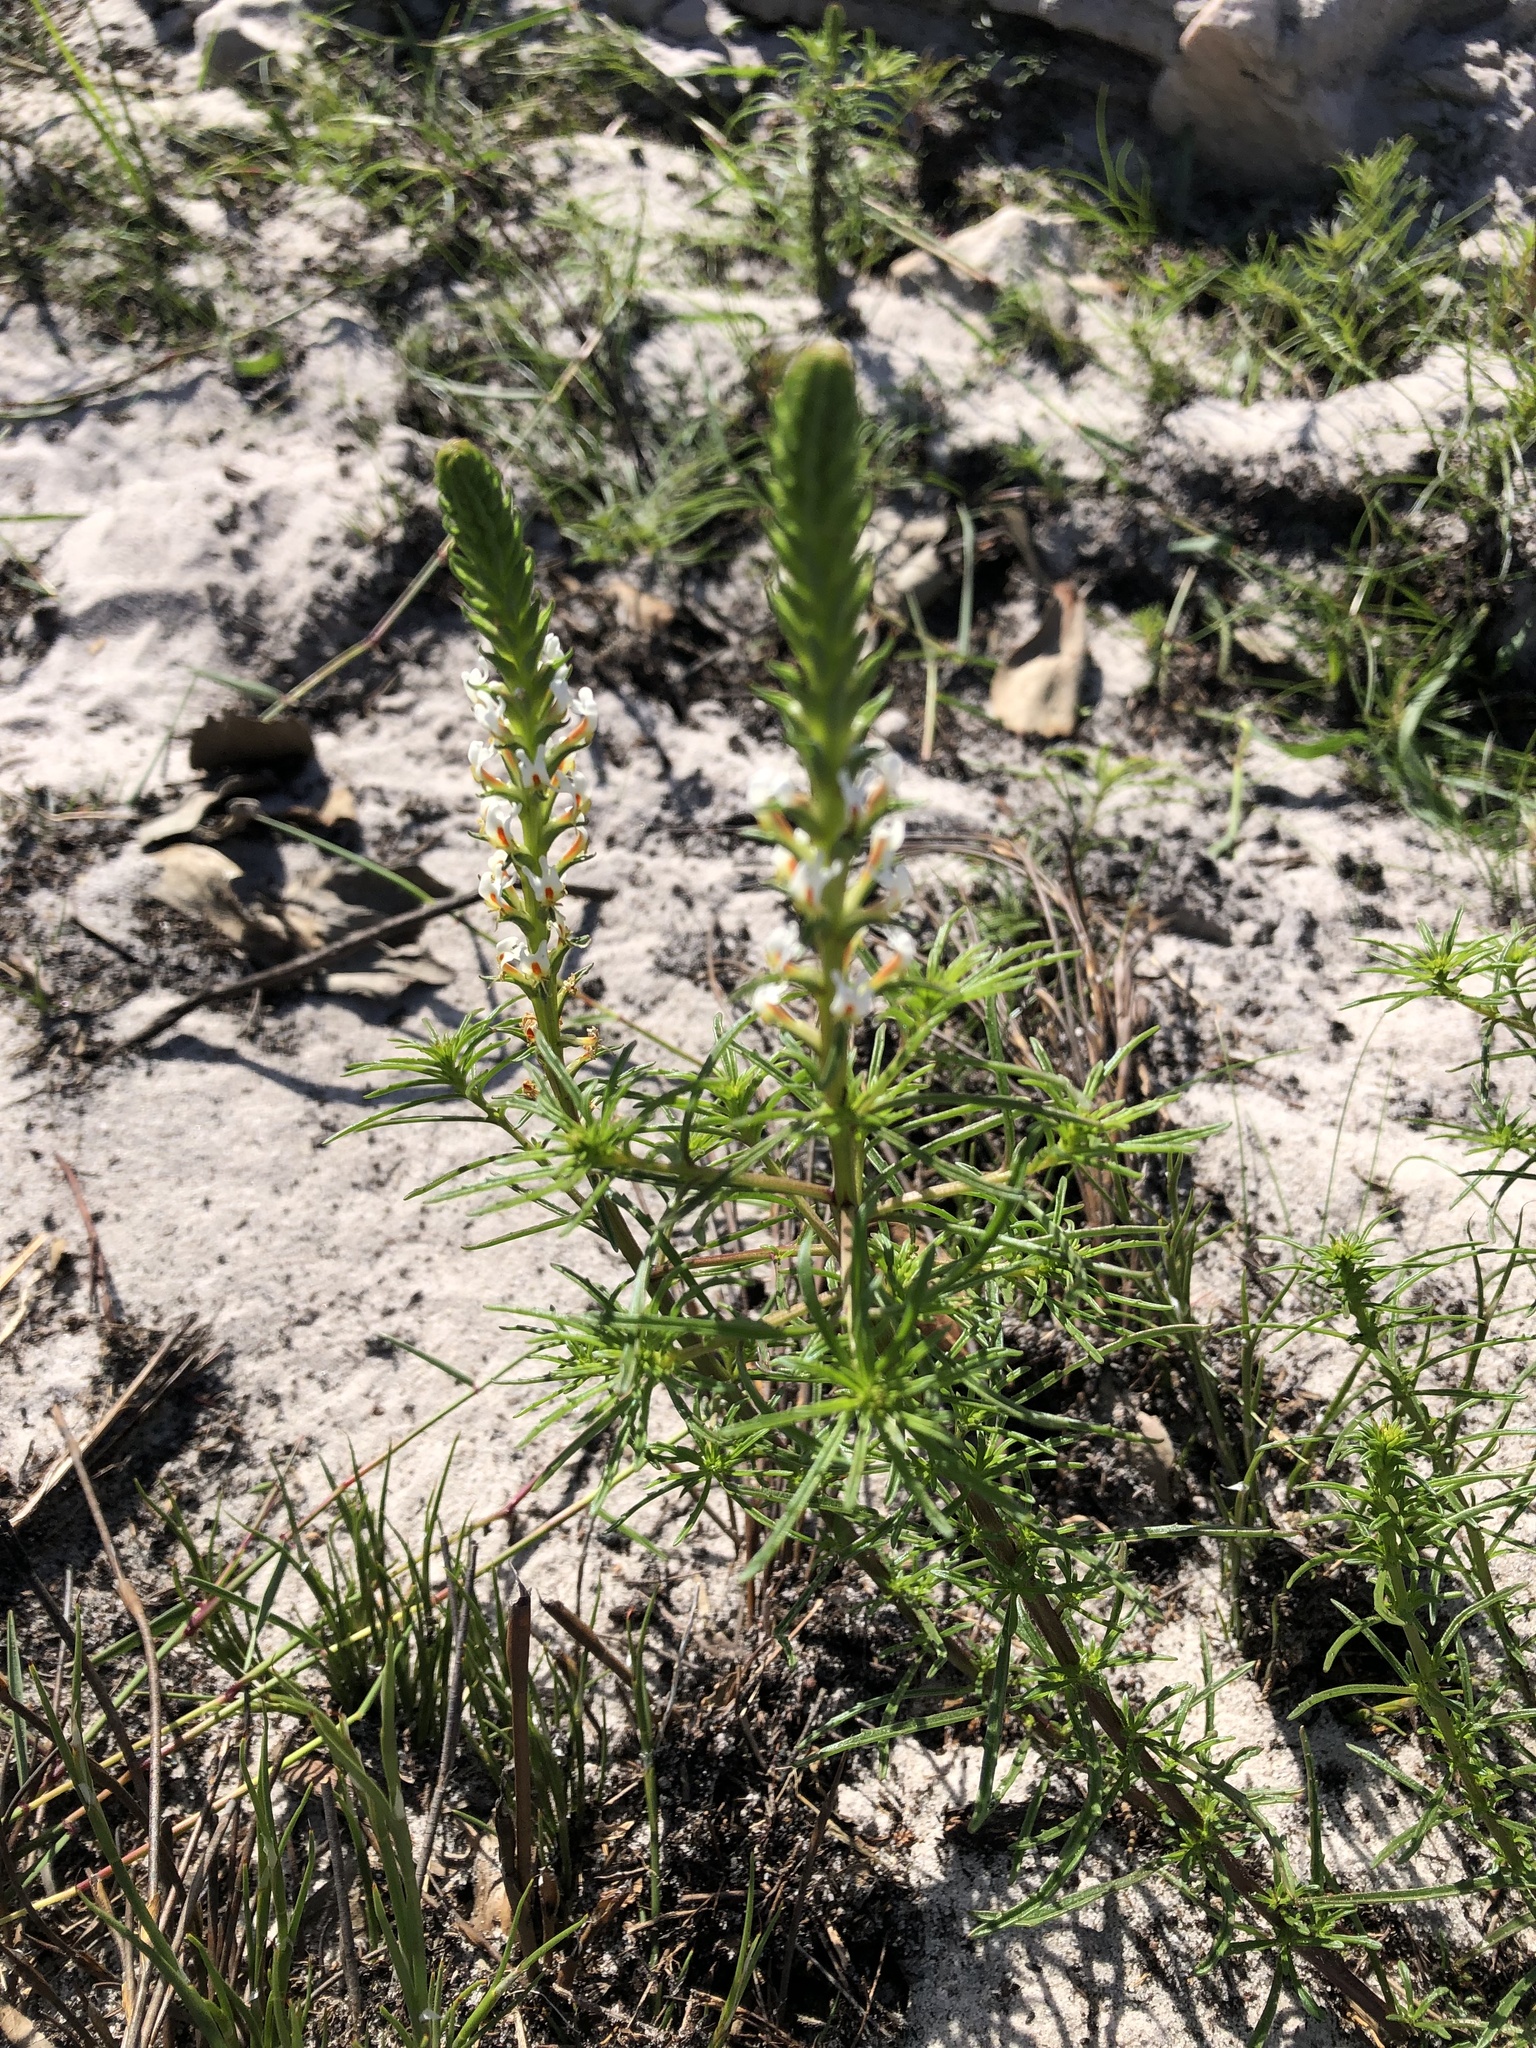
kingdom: Plantae
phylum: Tracheophyta
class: Magnoliopsida
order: Lamiales
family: Scrophulariaceae
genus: Hebenstretia
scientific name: Hebenstretia repens
